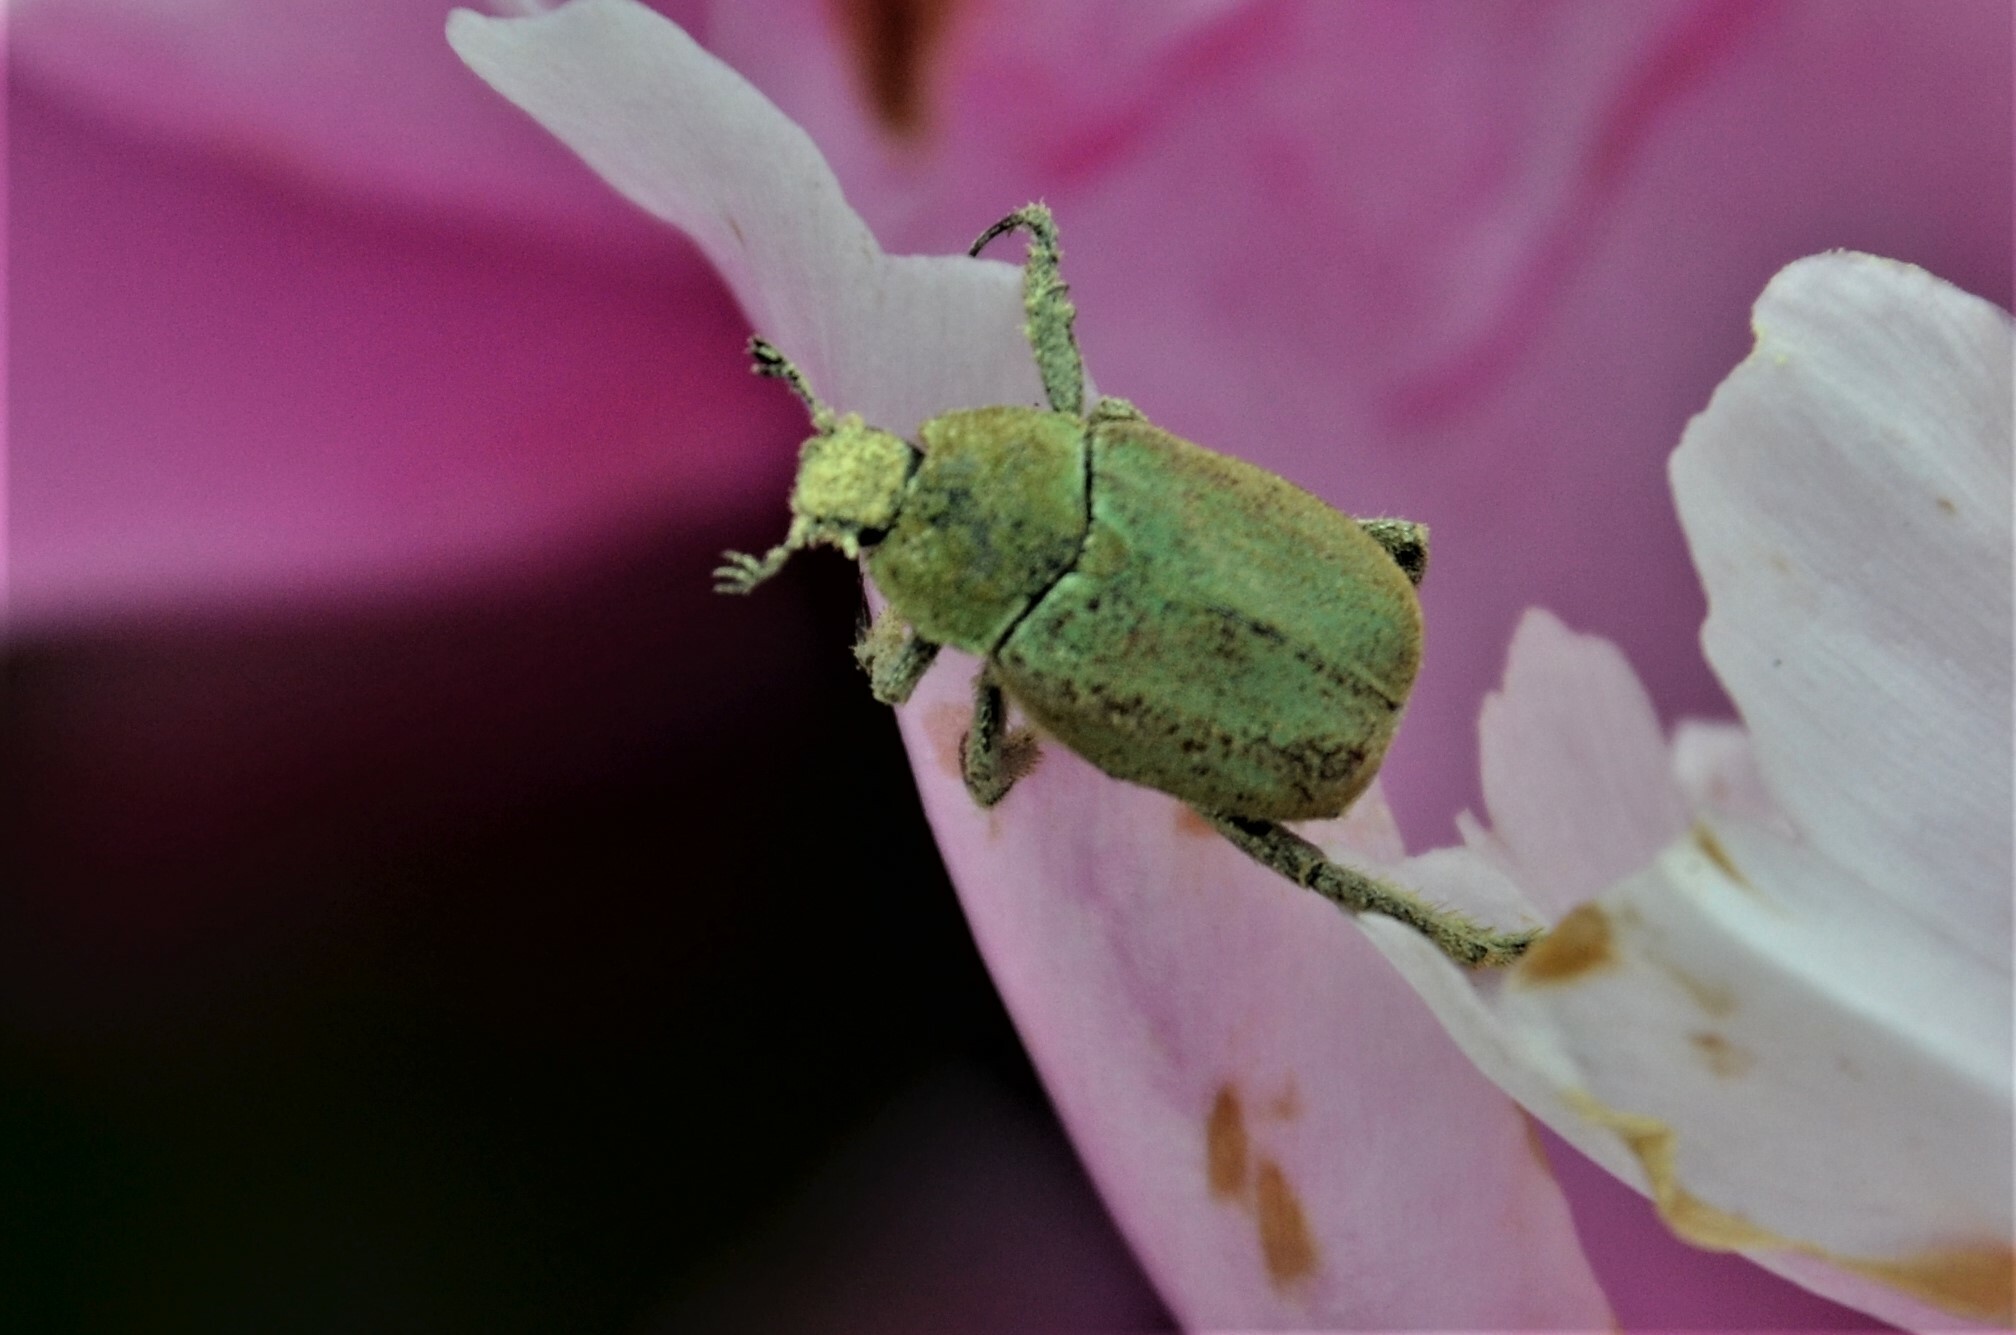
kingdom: Animalia
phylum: Arthropoda
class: Insecta
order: Coleoptera
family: Scarabaeidae
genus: Hoplia
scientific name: Hoplia argentea
